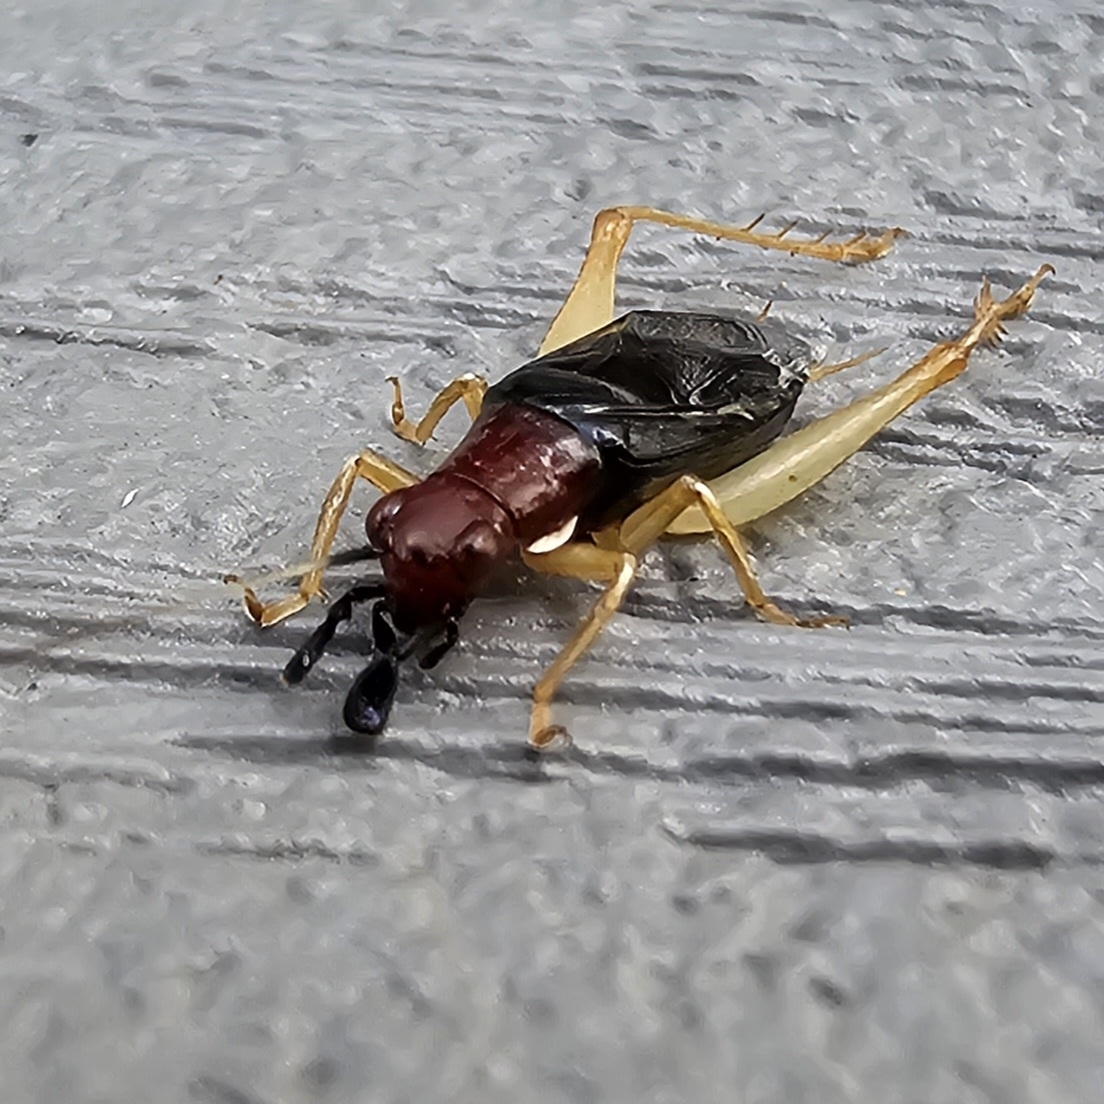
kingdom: Animalia
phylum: Arthropoda
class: Insecta
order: Orthoptera
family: Trigonidiidae
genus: Phyllopalpus
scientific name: Phyllopalpus pulchellus
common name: Handsome trig
